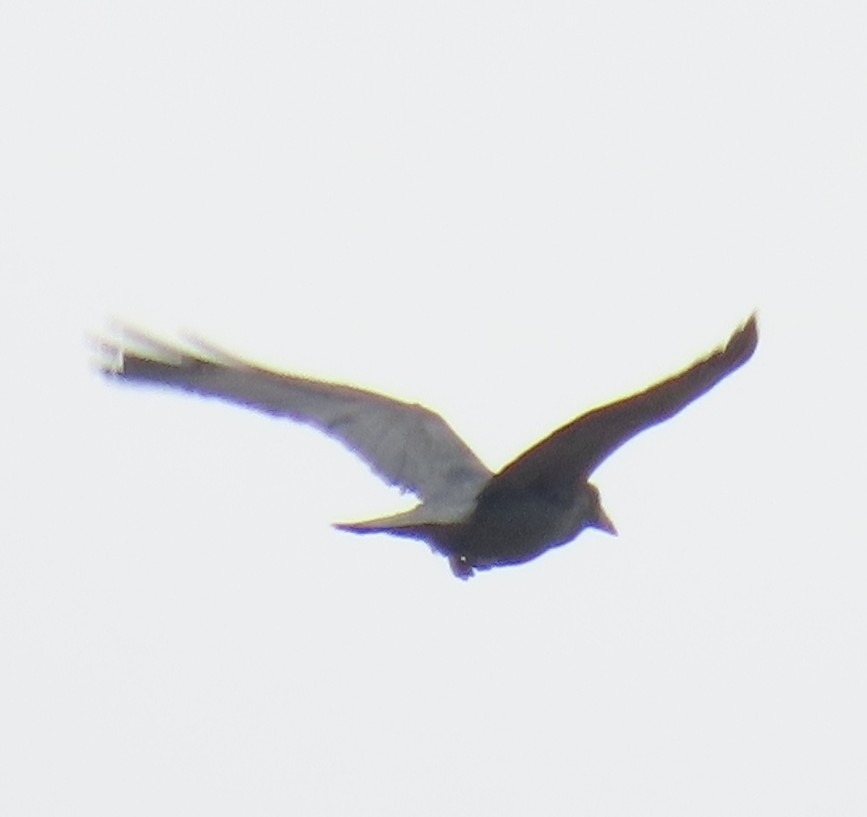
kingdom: Animalia
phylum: Chordata
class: Aves
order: Passeriformes
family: Corvidae
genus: Corvus
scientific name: Corvus corax
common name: Common raven
